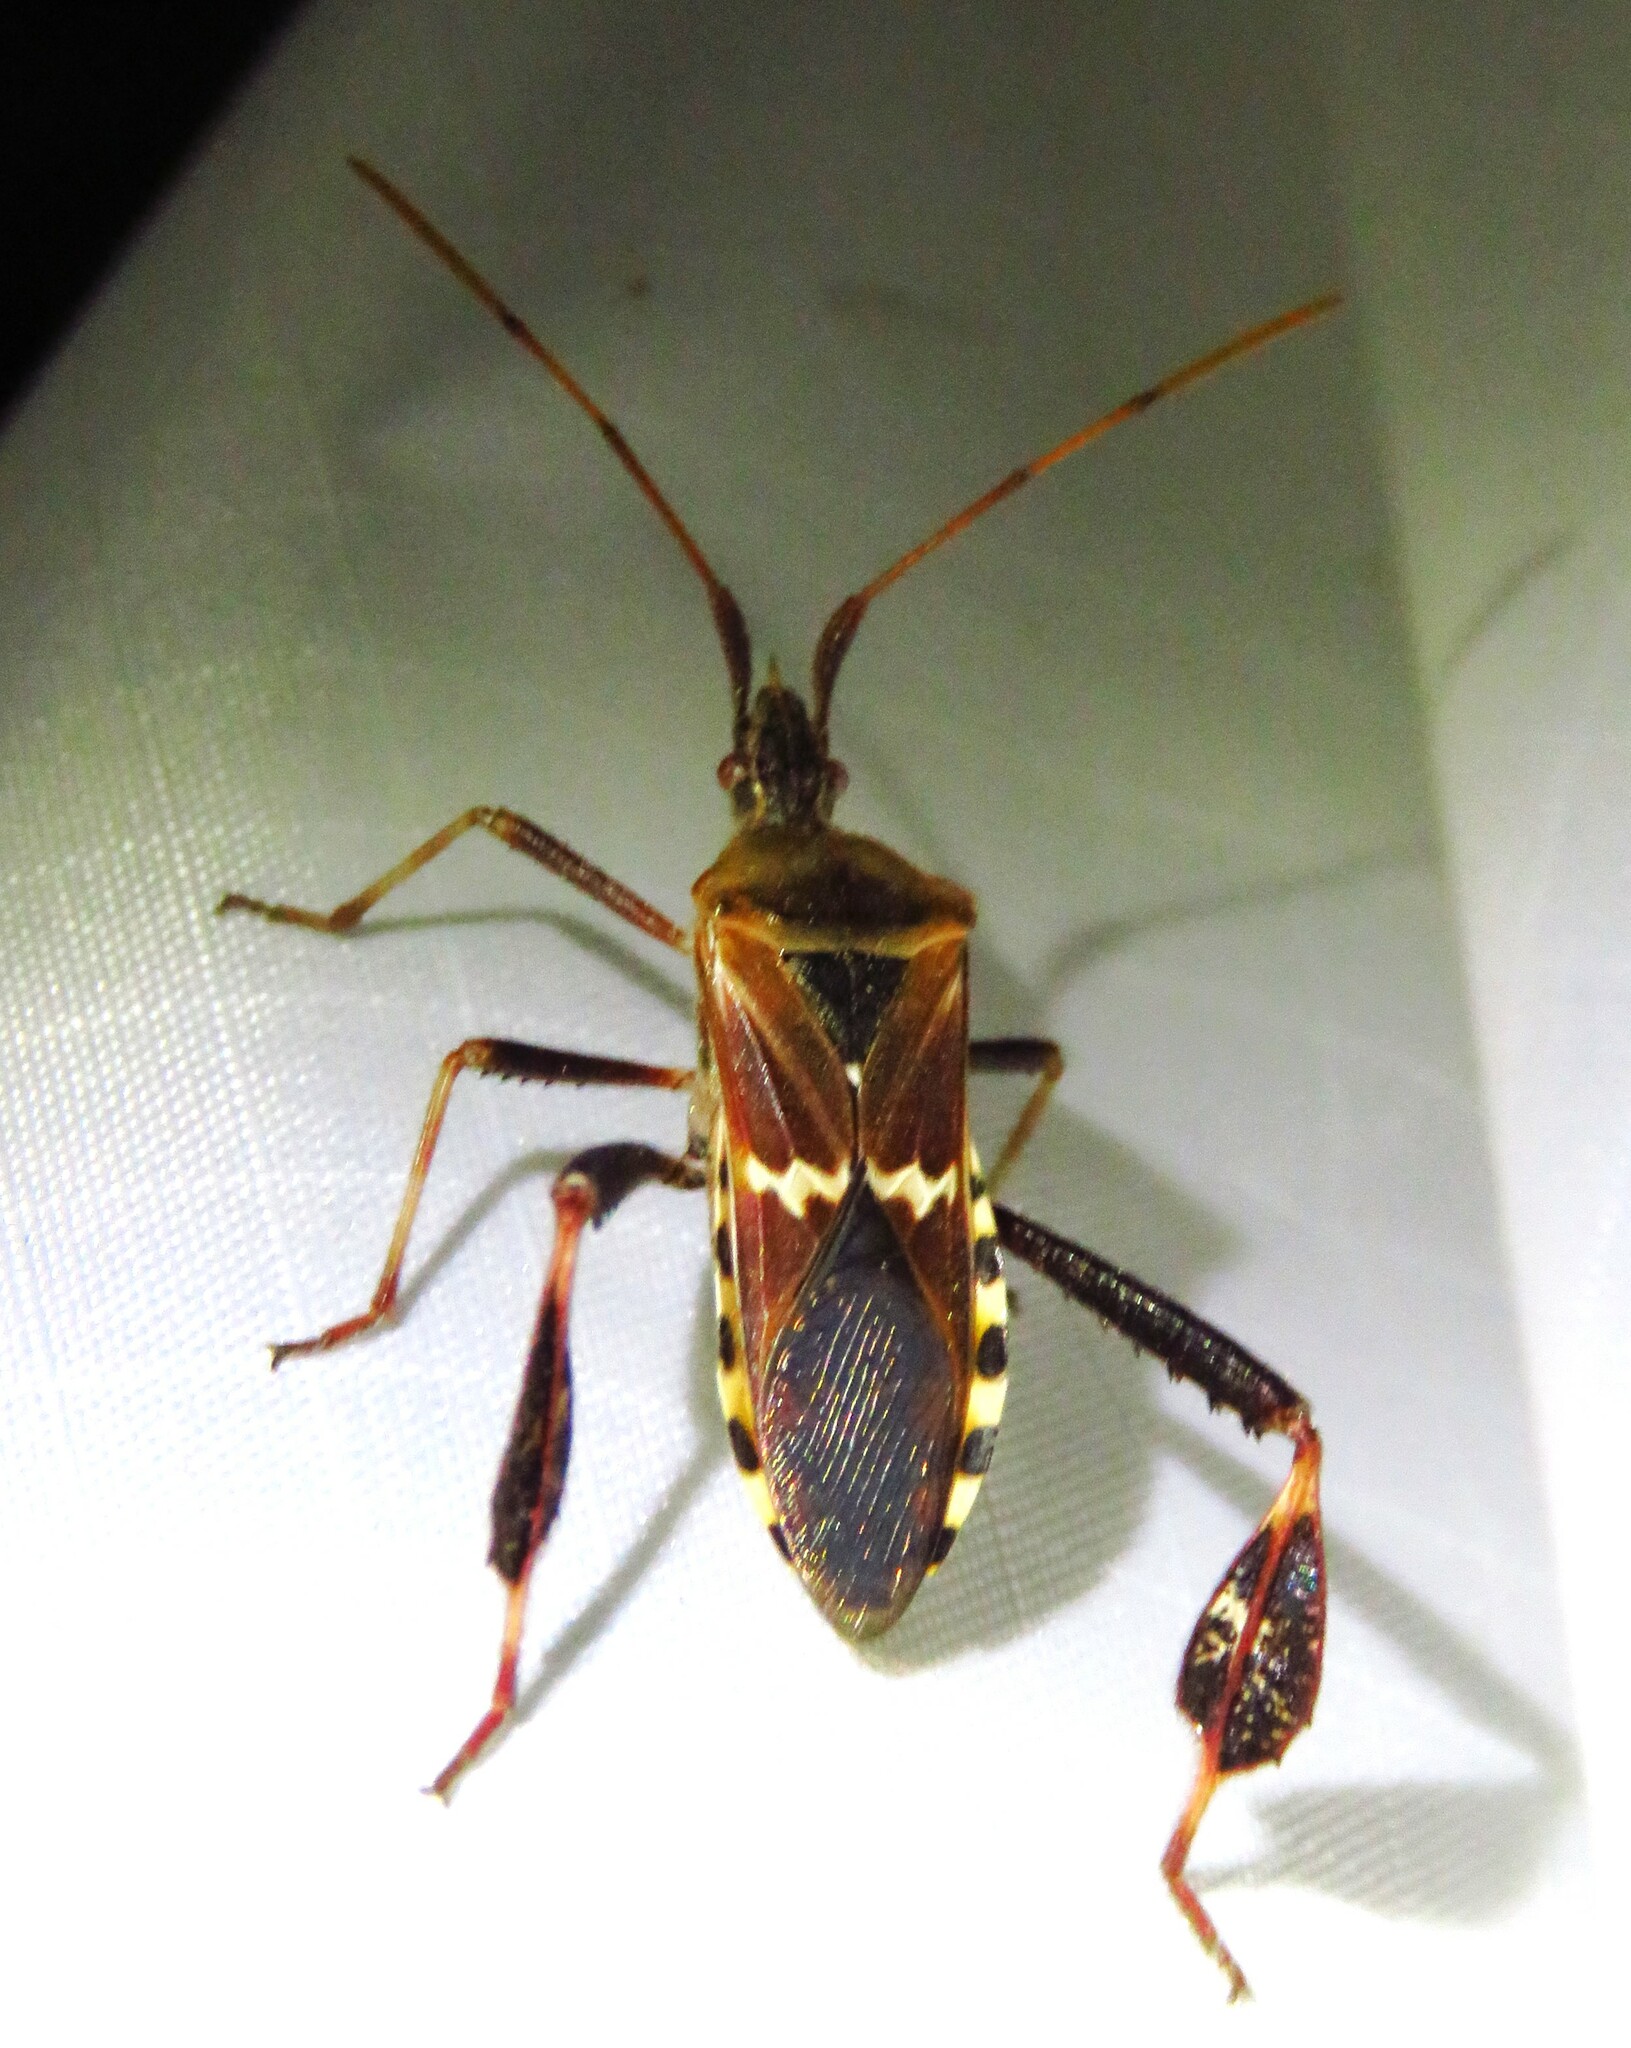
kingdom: Animalia
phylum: Arthropoda
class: Insecta
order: Hemiptera
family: Coreidae
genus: Leptoglossus
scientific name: Leptoglossus clypealis
